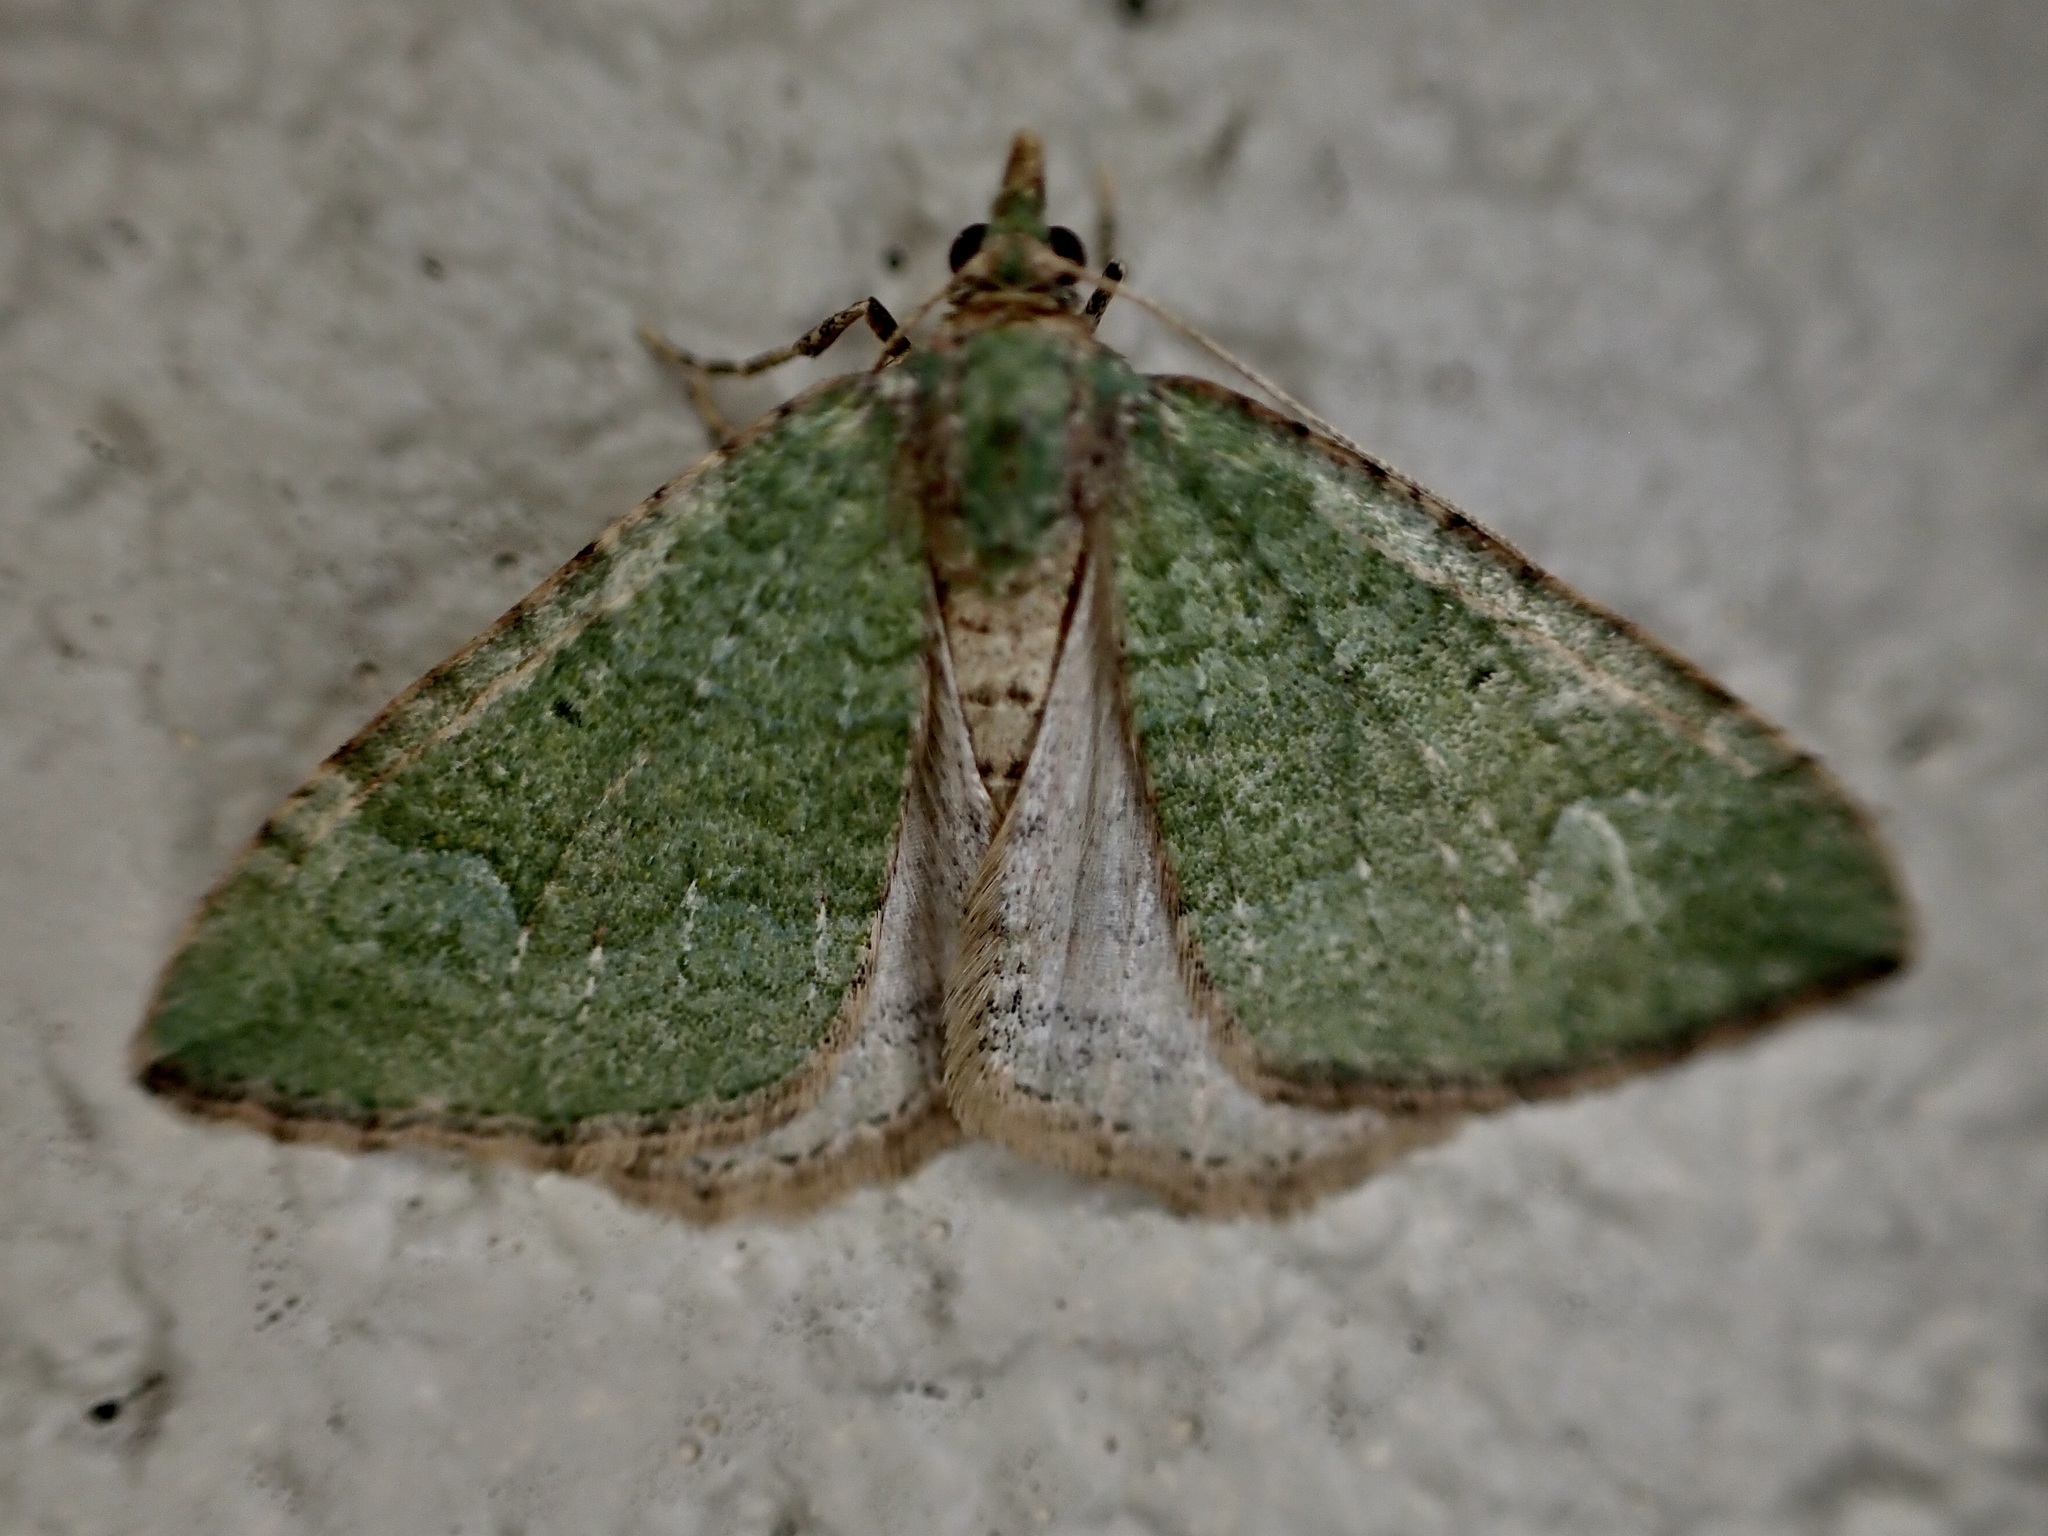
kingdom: Animalia
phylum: Arthropoda
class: Insecta
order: Lepidoptera
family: Geometridae
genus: Epyaxa
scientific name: Epyaxa rosearia
